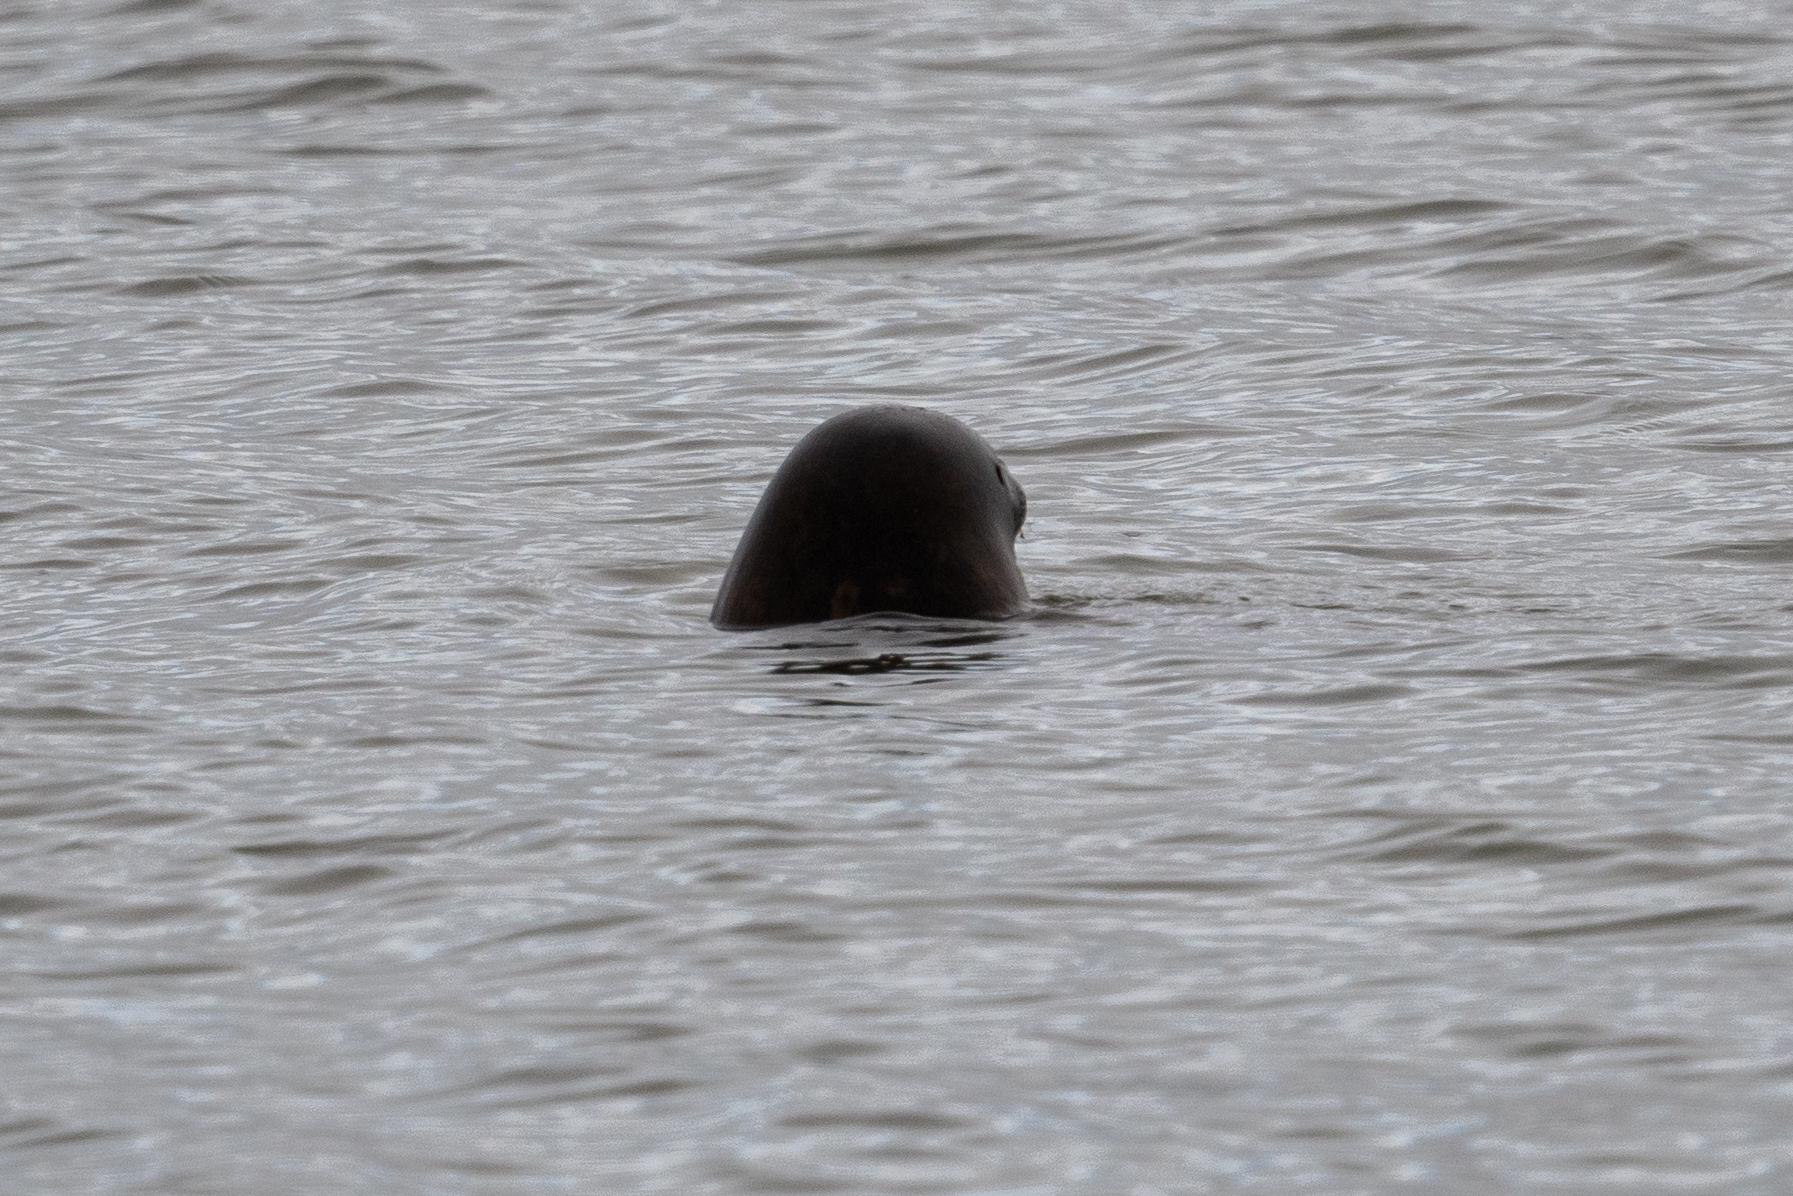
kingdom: Animalia
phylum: Chordata
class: Mammalia
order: Carnivora
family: Otariidae
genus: Zalophus
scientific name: Zalophus californianus
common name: California sea lion
